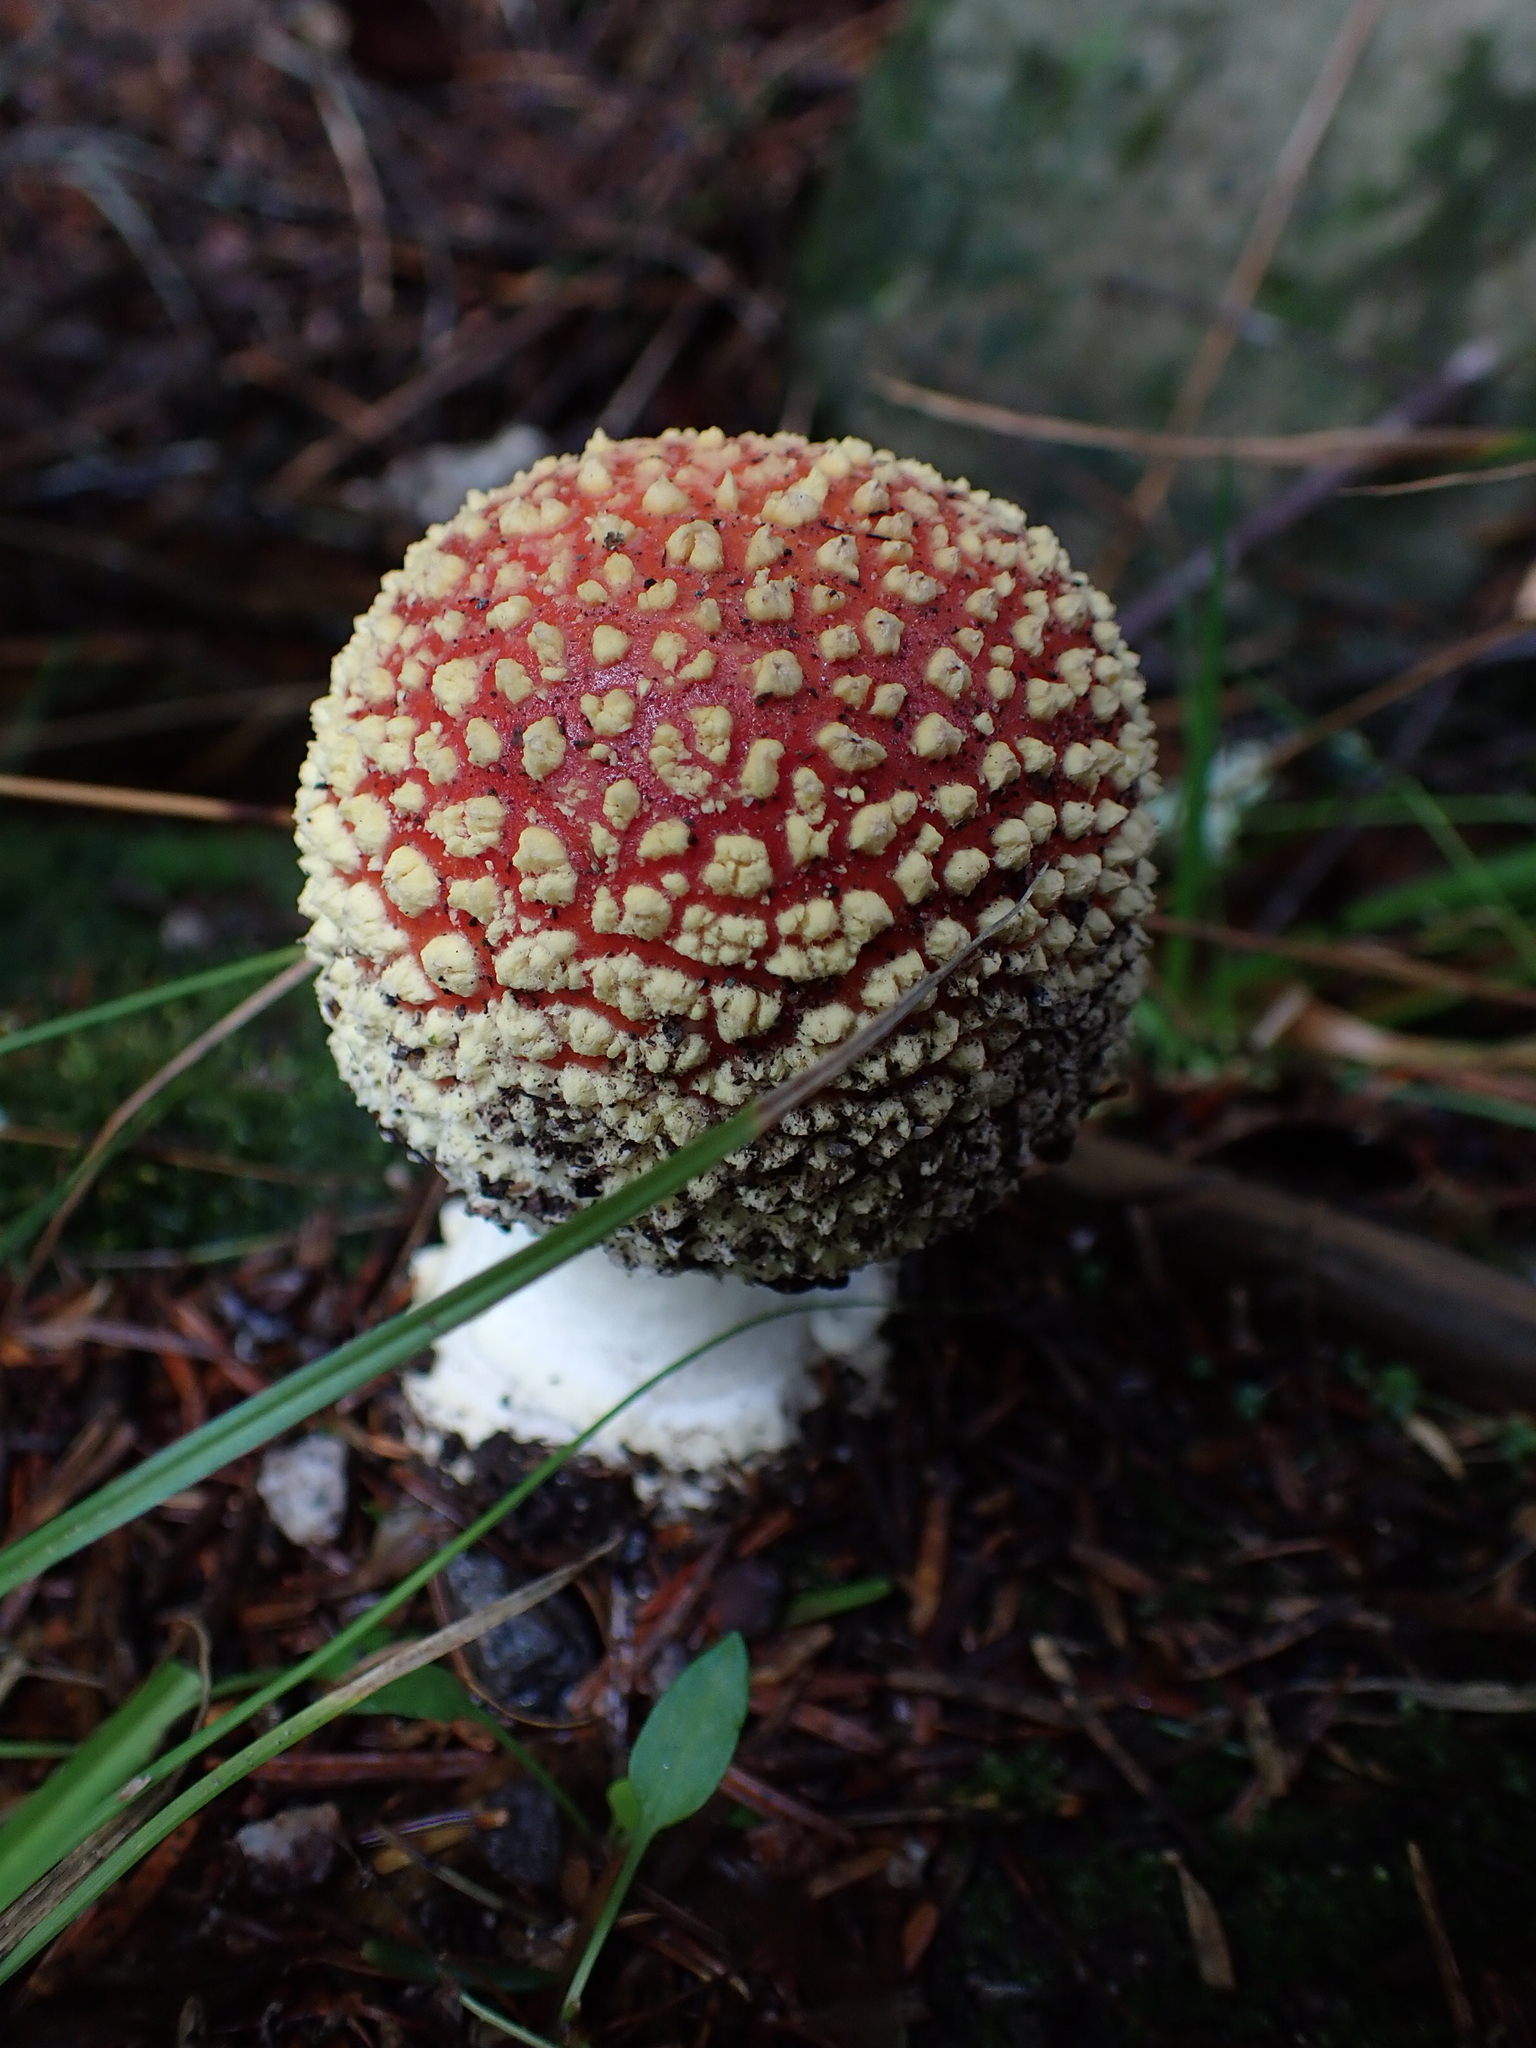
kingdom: Fungi
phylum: Basidiomycota
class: Agaricomycetes
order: Agaricales
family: Amanitaceae
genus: Amanita
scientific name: Amanita muscaria
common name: Fly agaric
